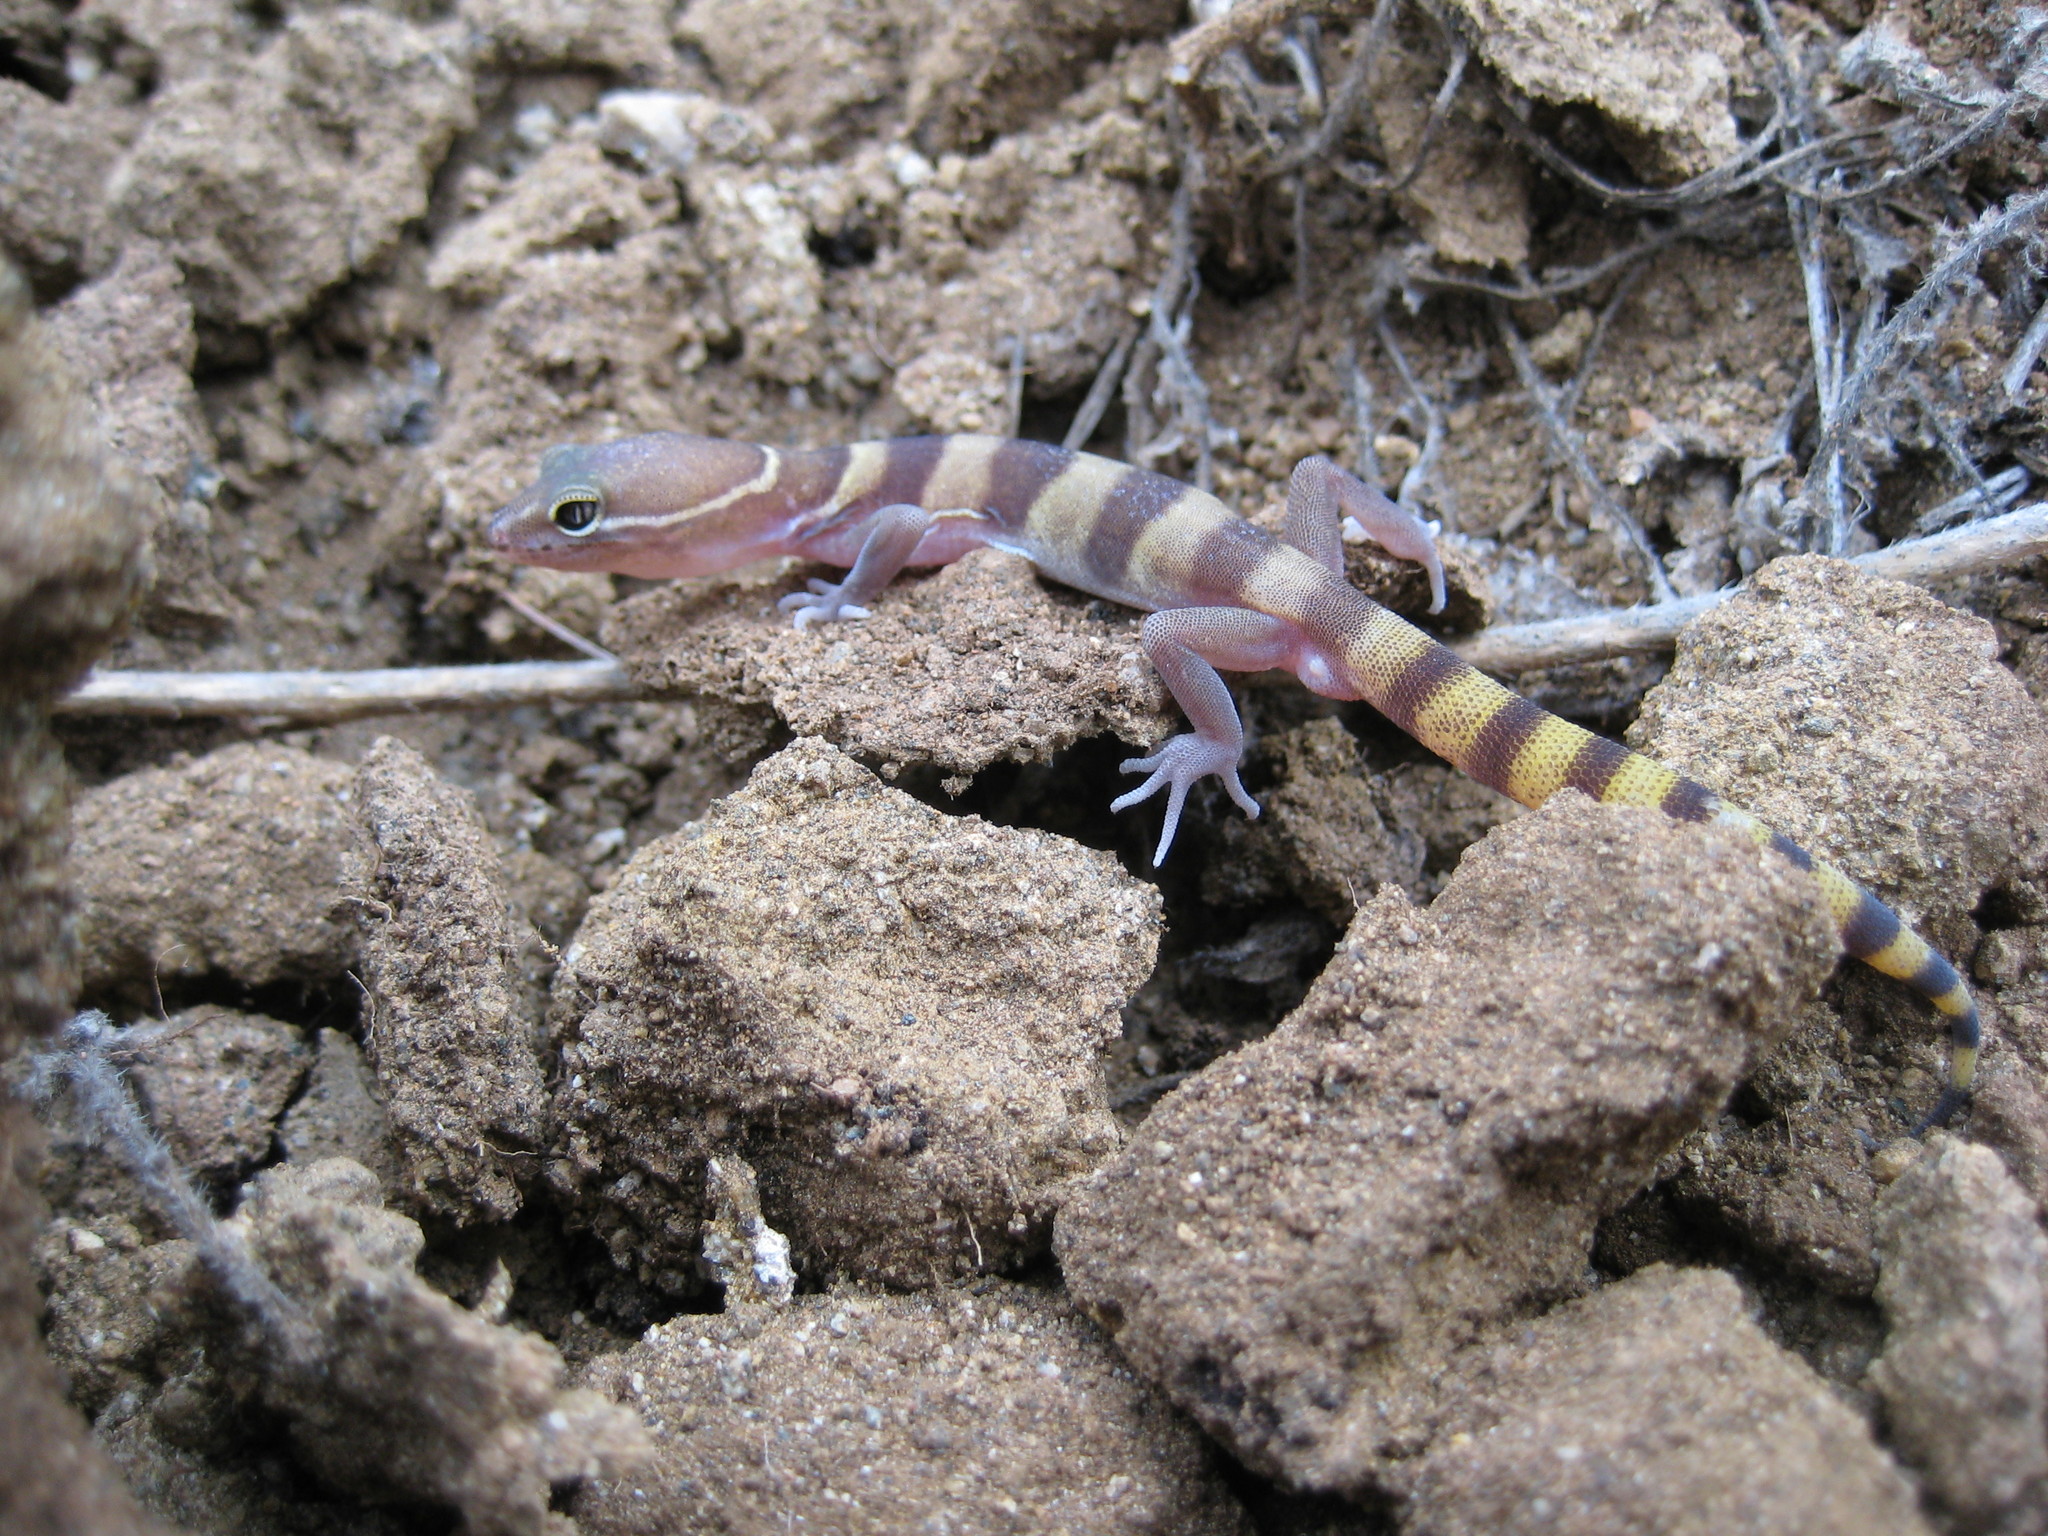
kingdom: Animalia
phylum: Chordata
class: Squamata
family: Eublepharidae
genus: Coleonyx
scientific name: Coleonyx variegatus
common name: Western banded gecko
